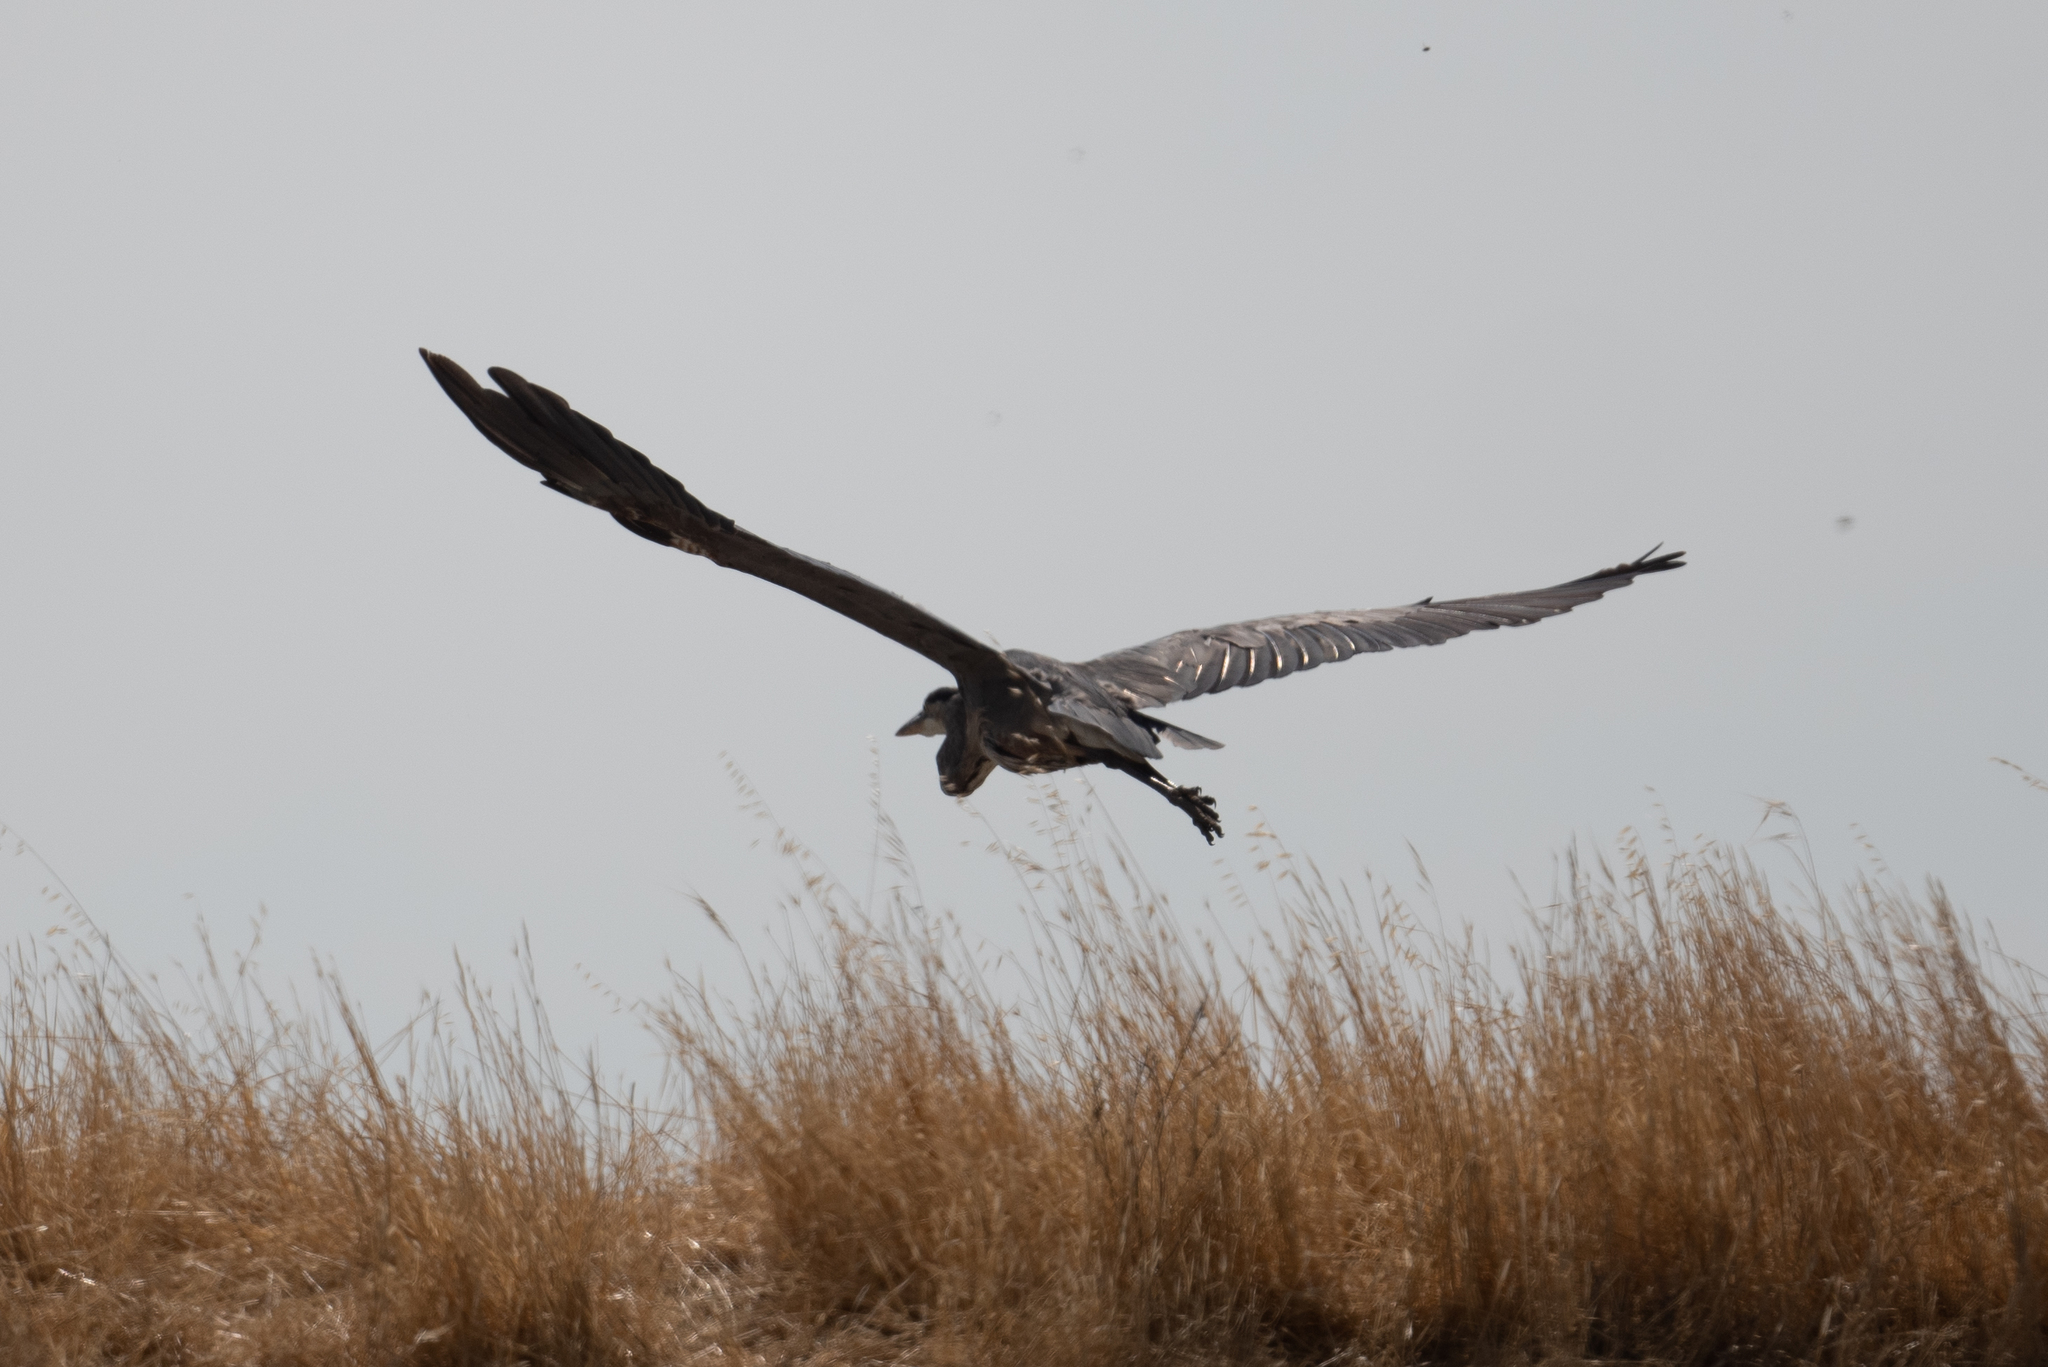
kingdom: Animalia
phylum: Chordata
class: Aves
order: Pelecaniformes
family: Ardeidae
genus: Ardea
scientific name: Ardea herodias
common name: Great blue heron
